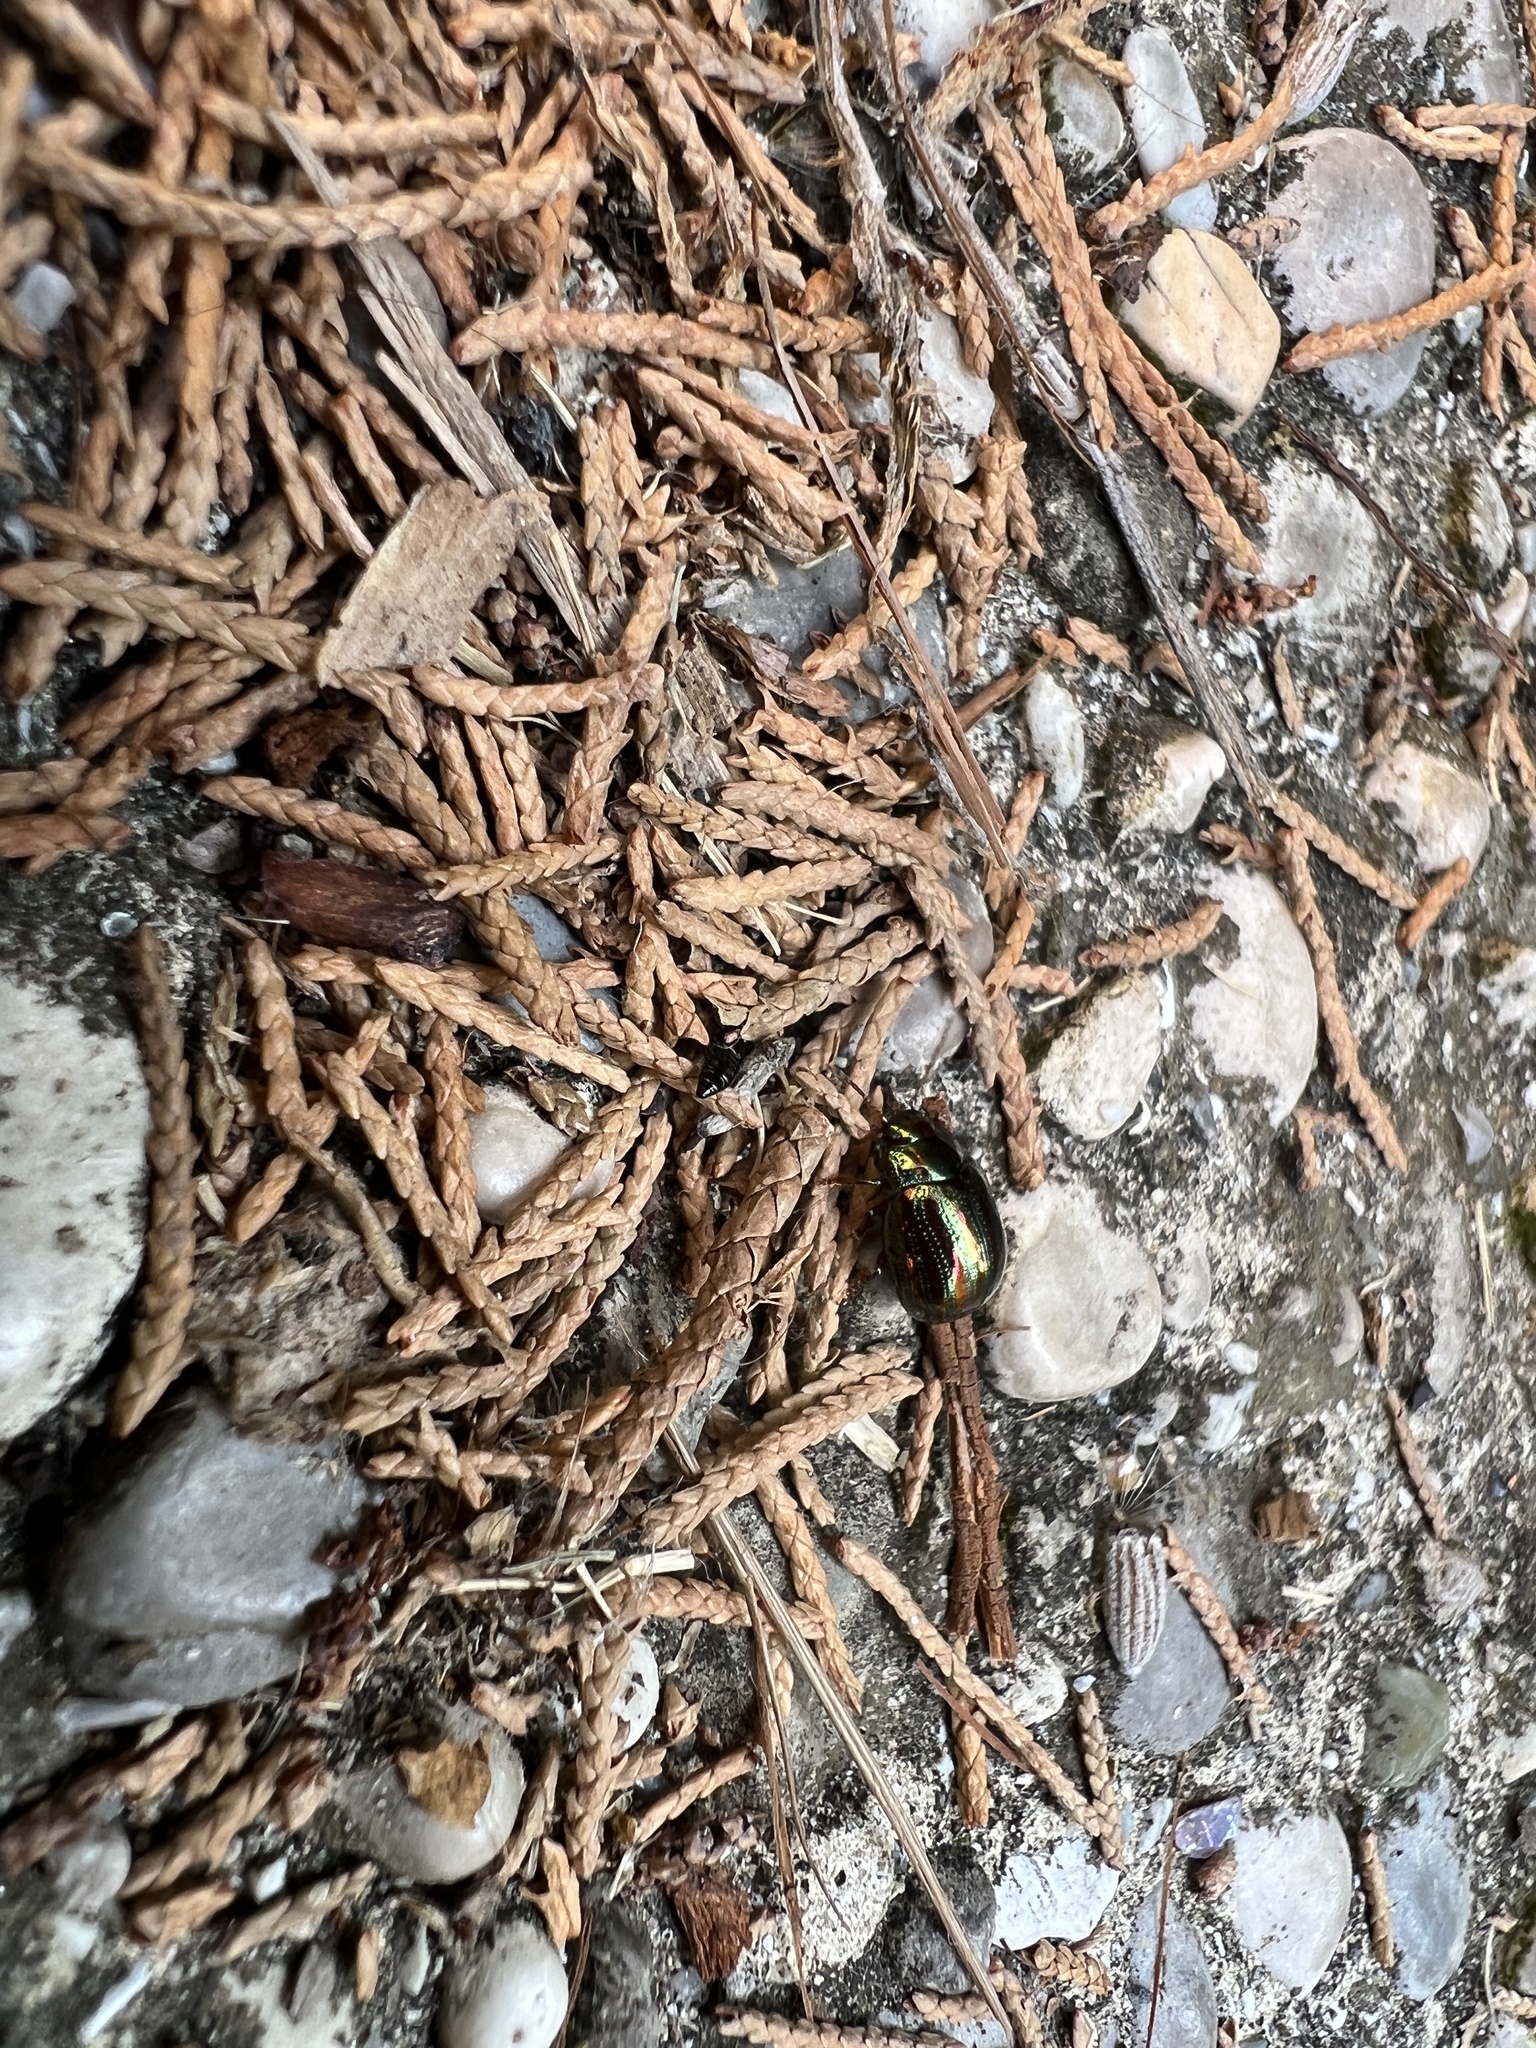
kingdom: Animalia
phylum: Arthropoda
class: Insecta
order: Coleoptera
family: Chrysomelidae
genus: Chrysolina
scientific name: Chrysolina americana
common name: Rosemary beetle
